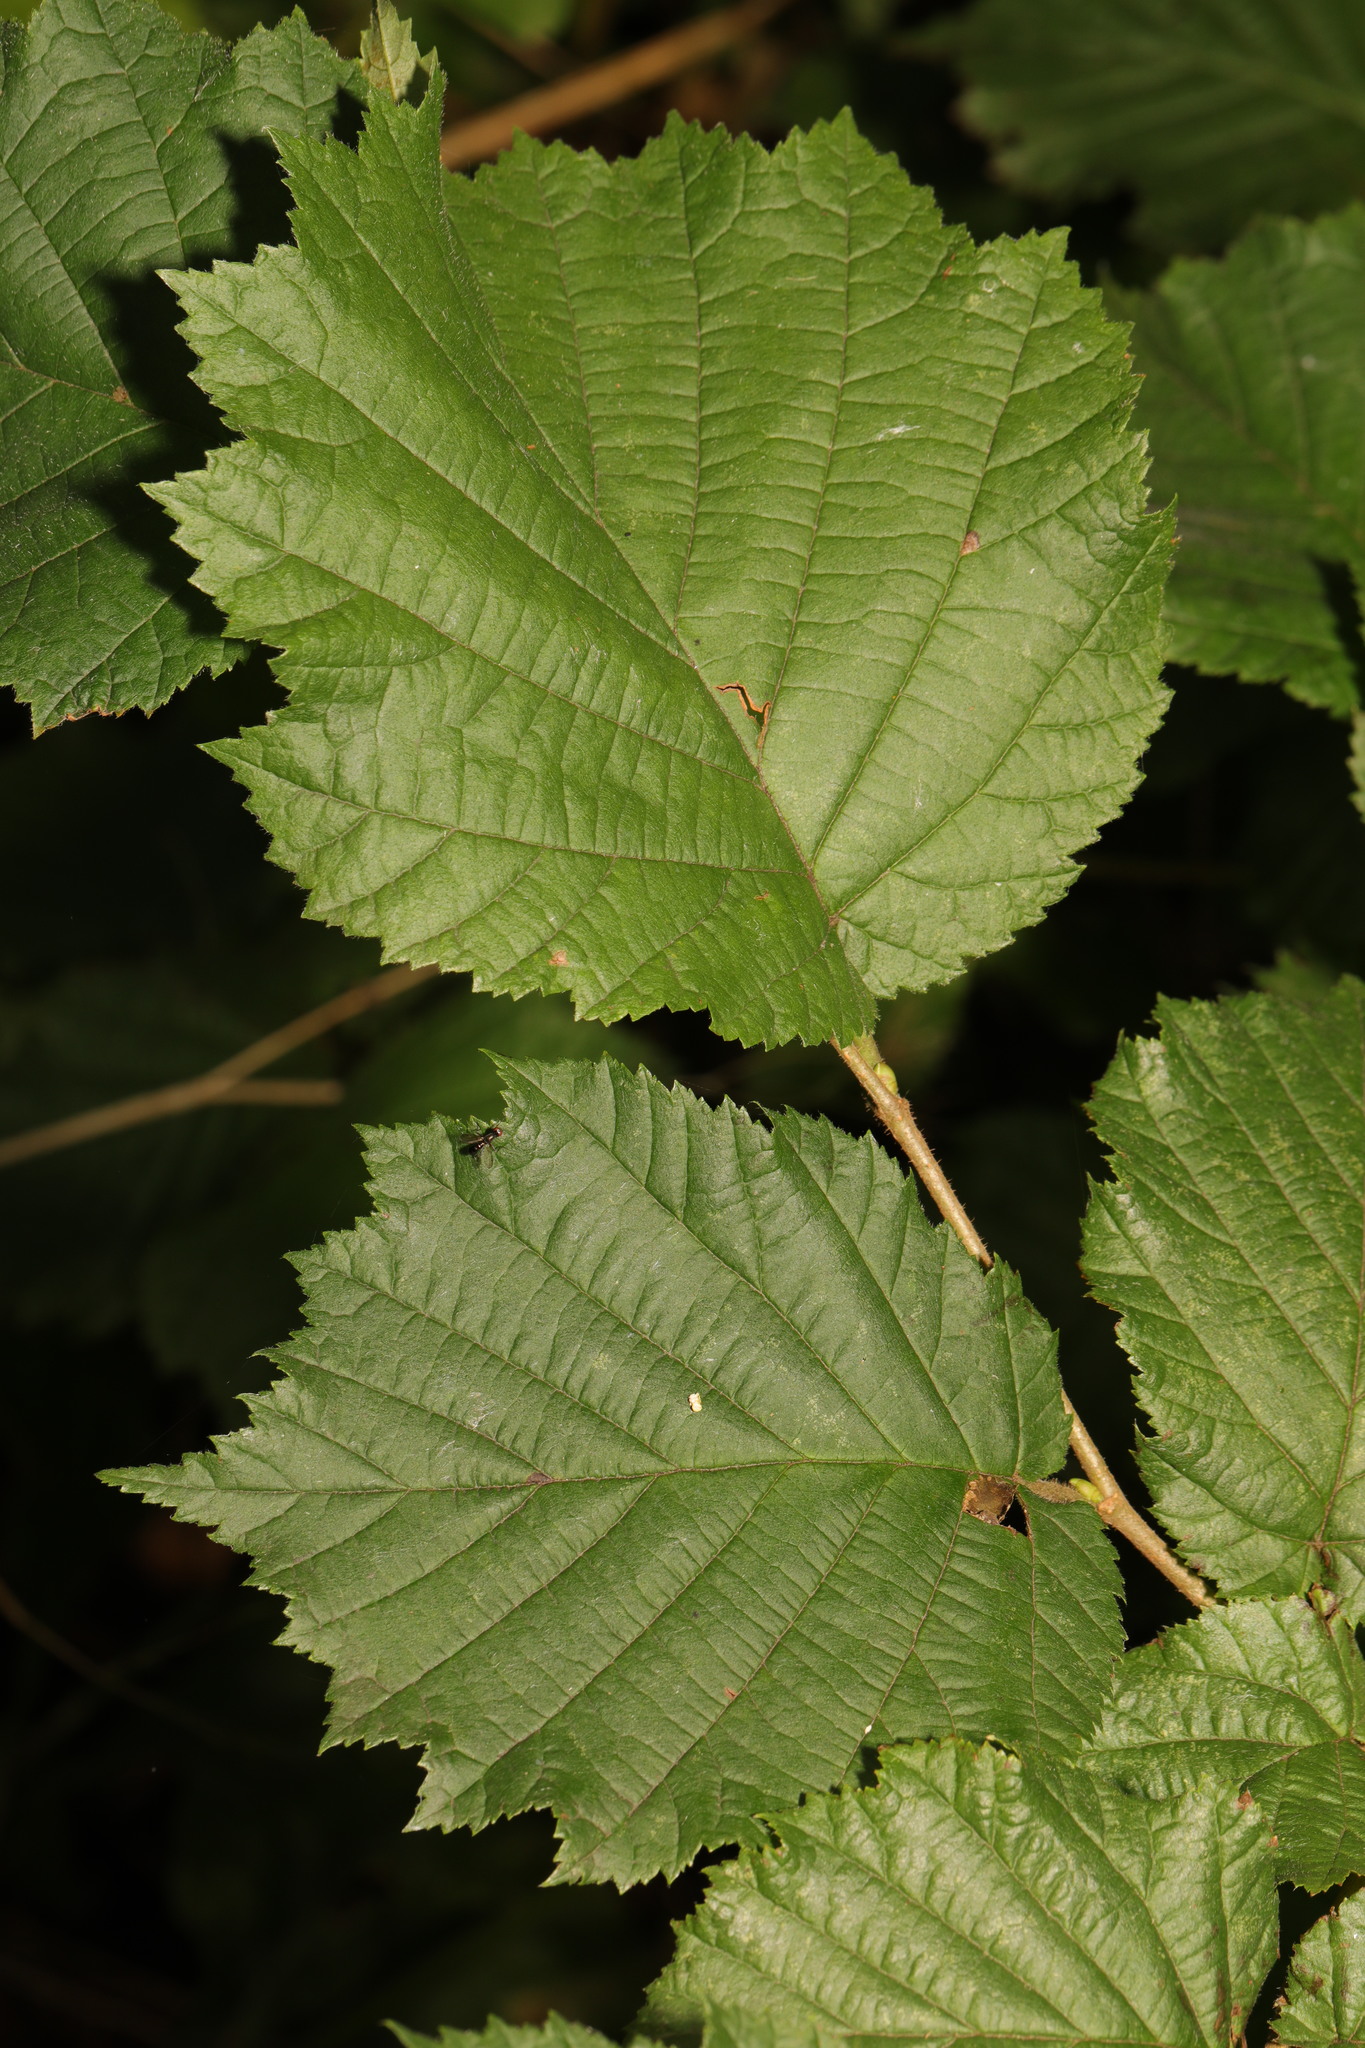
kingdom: Plantae
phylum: Tracheophyta
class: Magnoliopsida
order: Fagales
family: Betulaceae
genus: Corylus
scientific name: Corylus avellana
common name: European hazel
